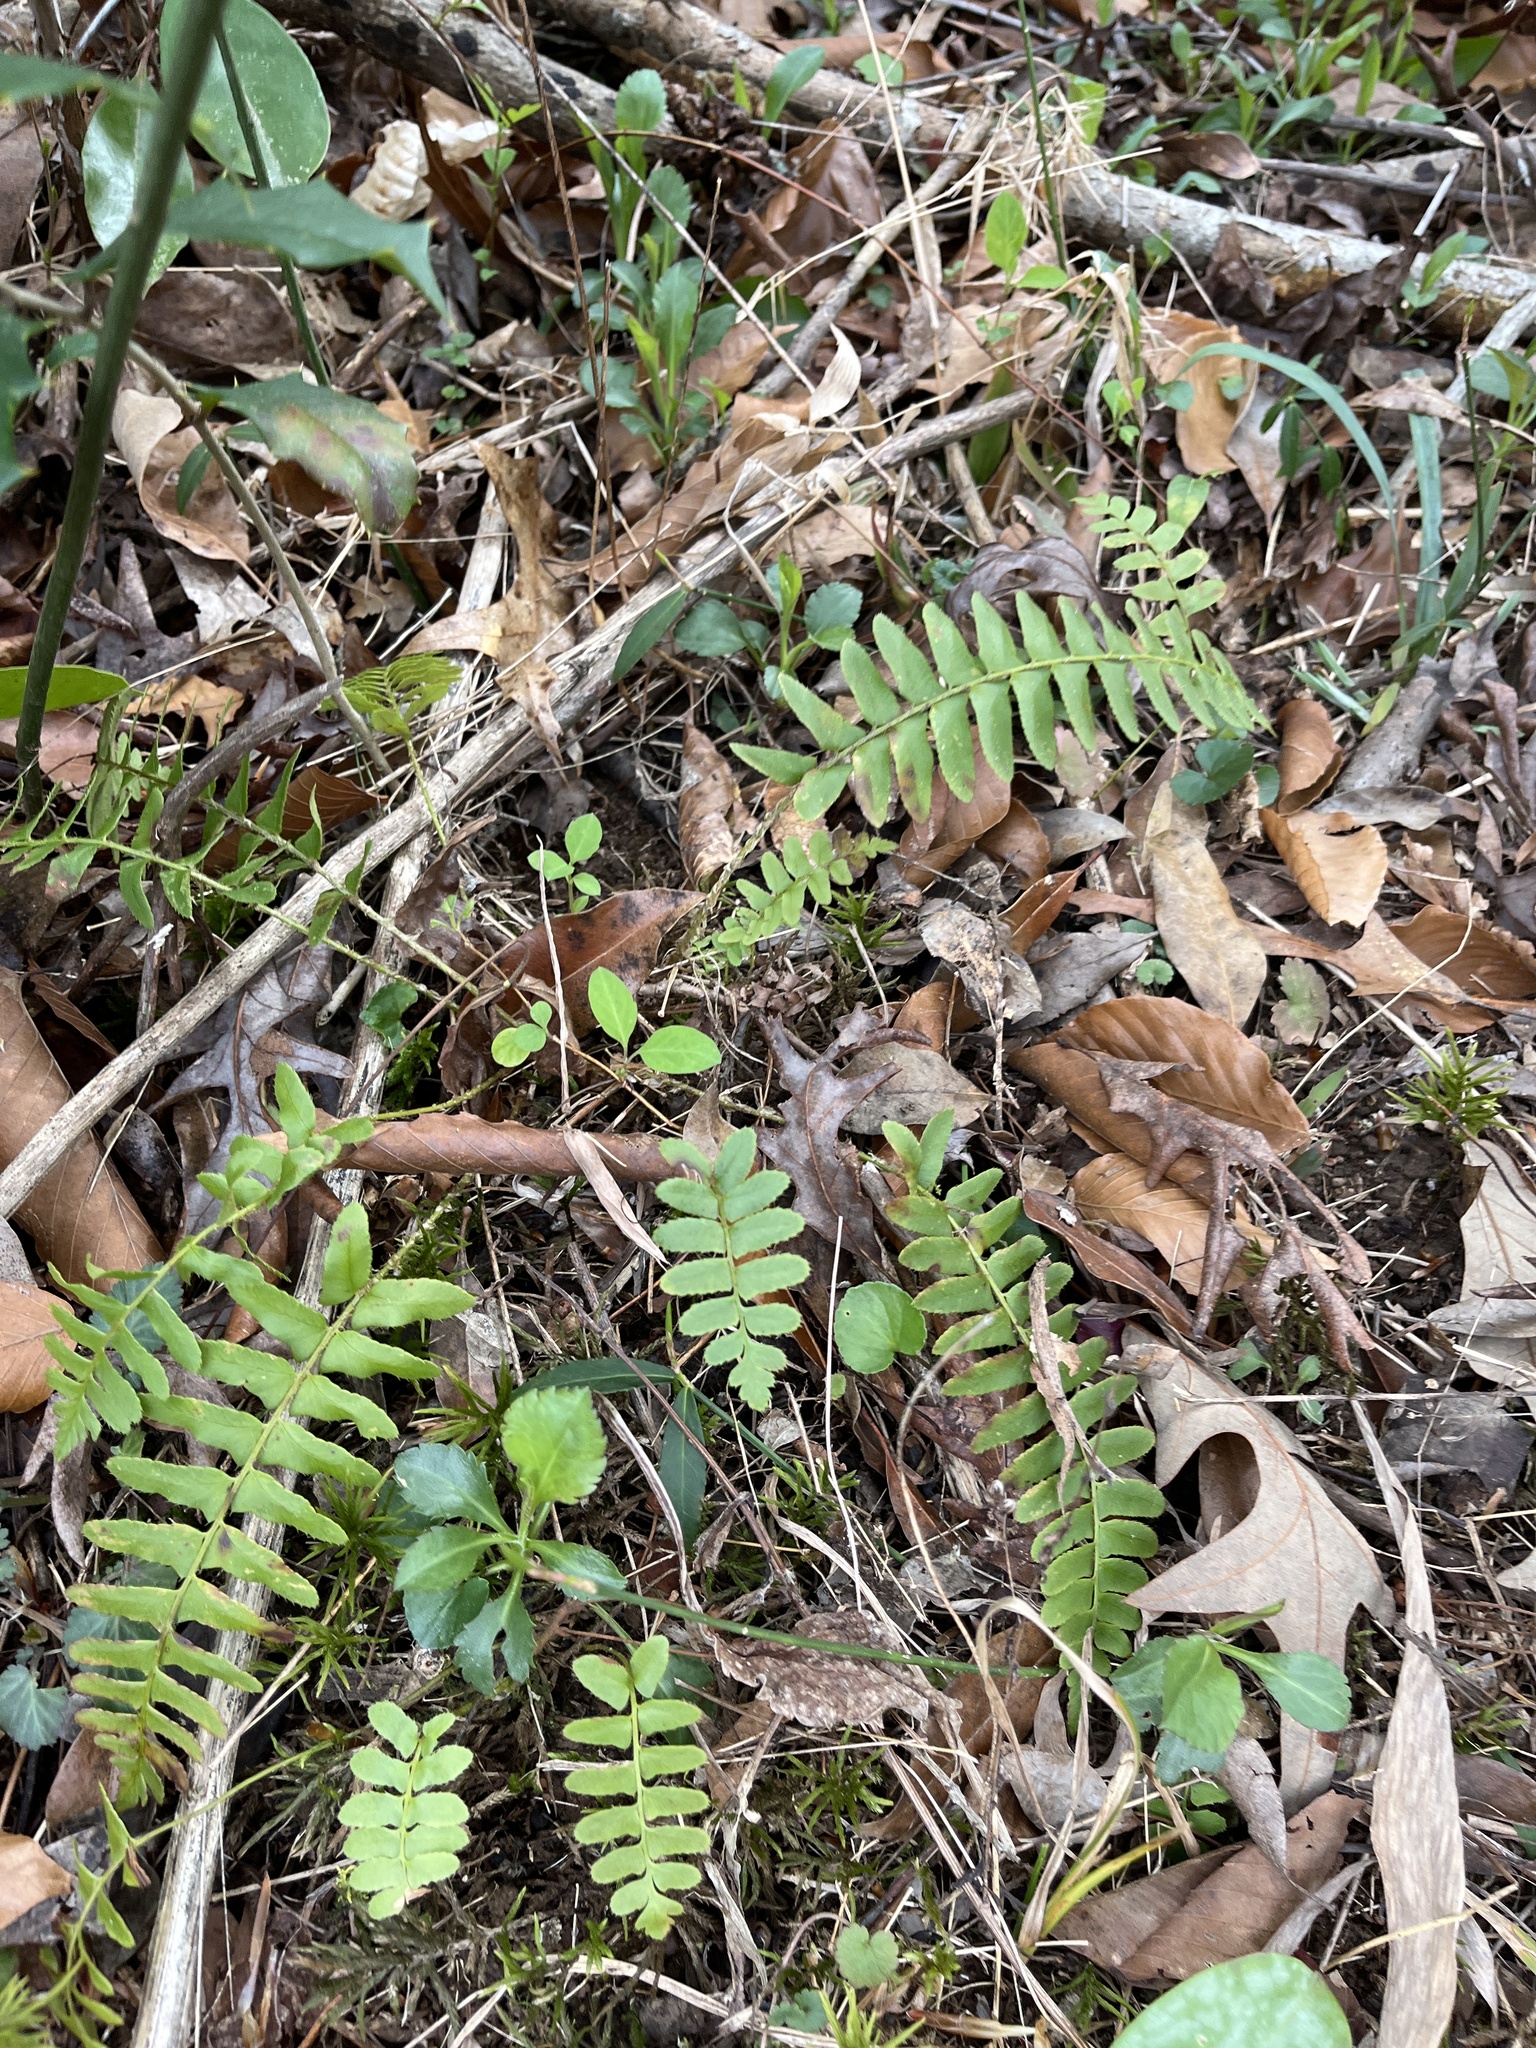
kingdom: Plantae
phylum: Tracheophyta
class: Polypodiopsida
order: Polypodiales
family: Dryopteridaceae
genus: Polystichum
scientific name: Polystichum acrostichoides
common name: Christmas fern
